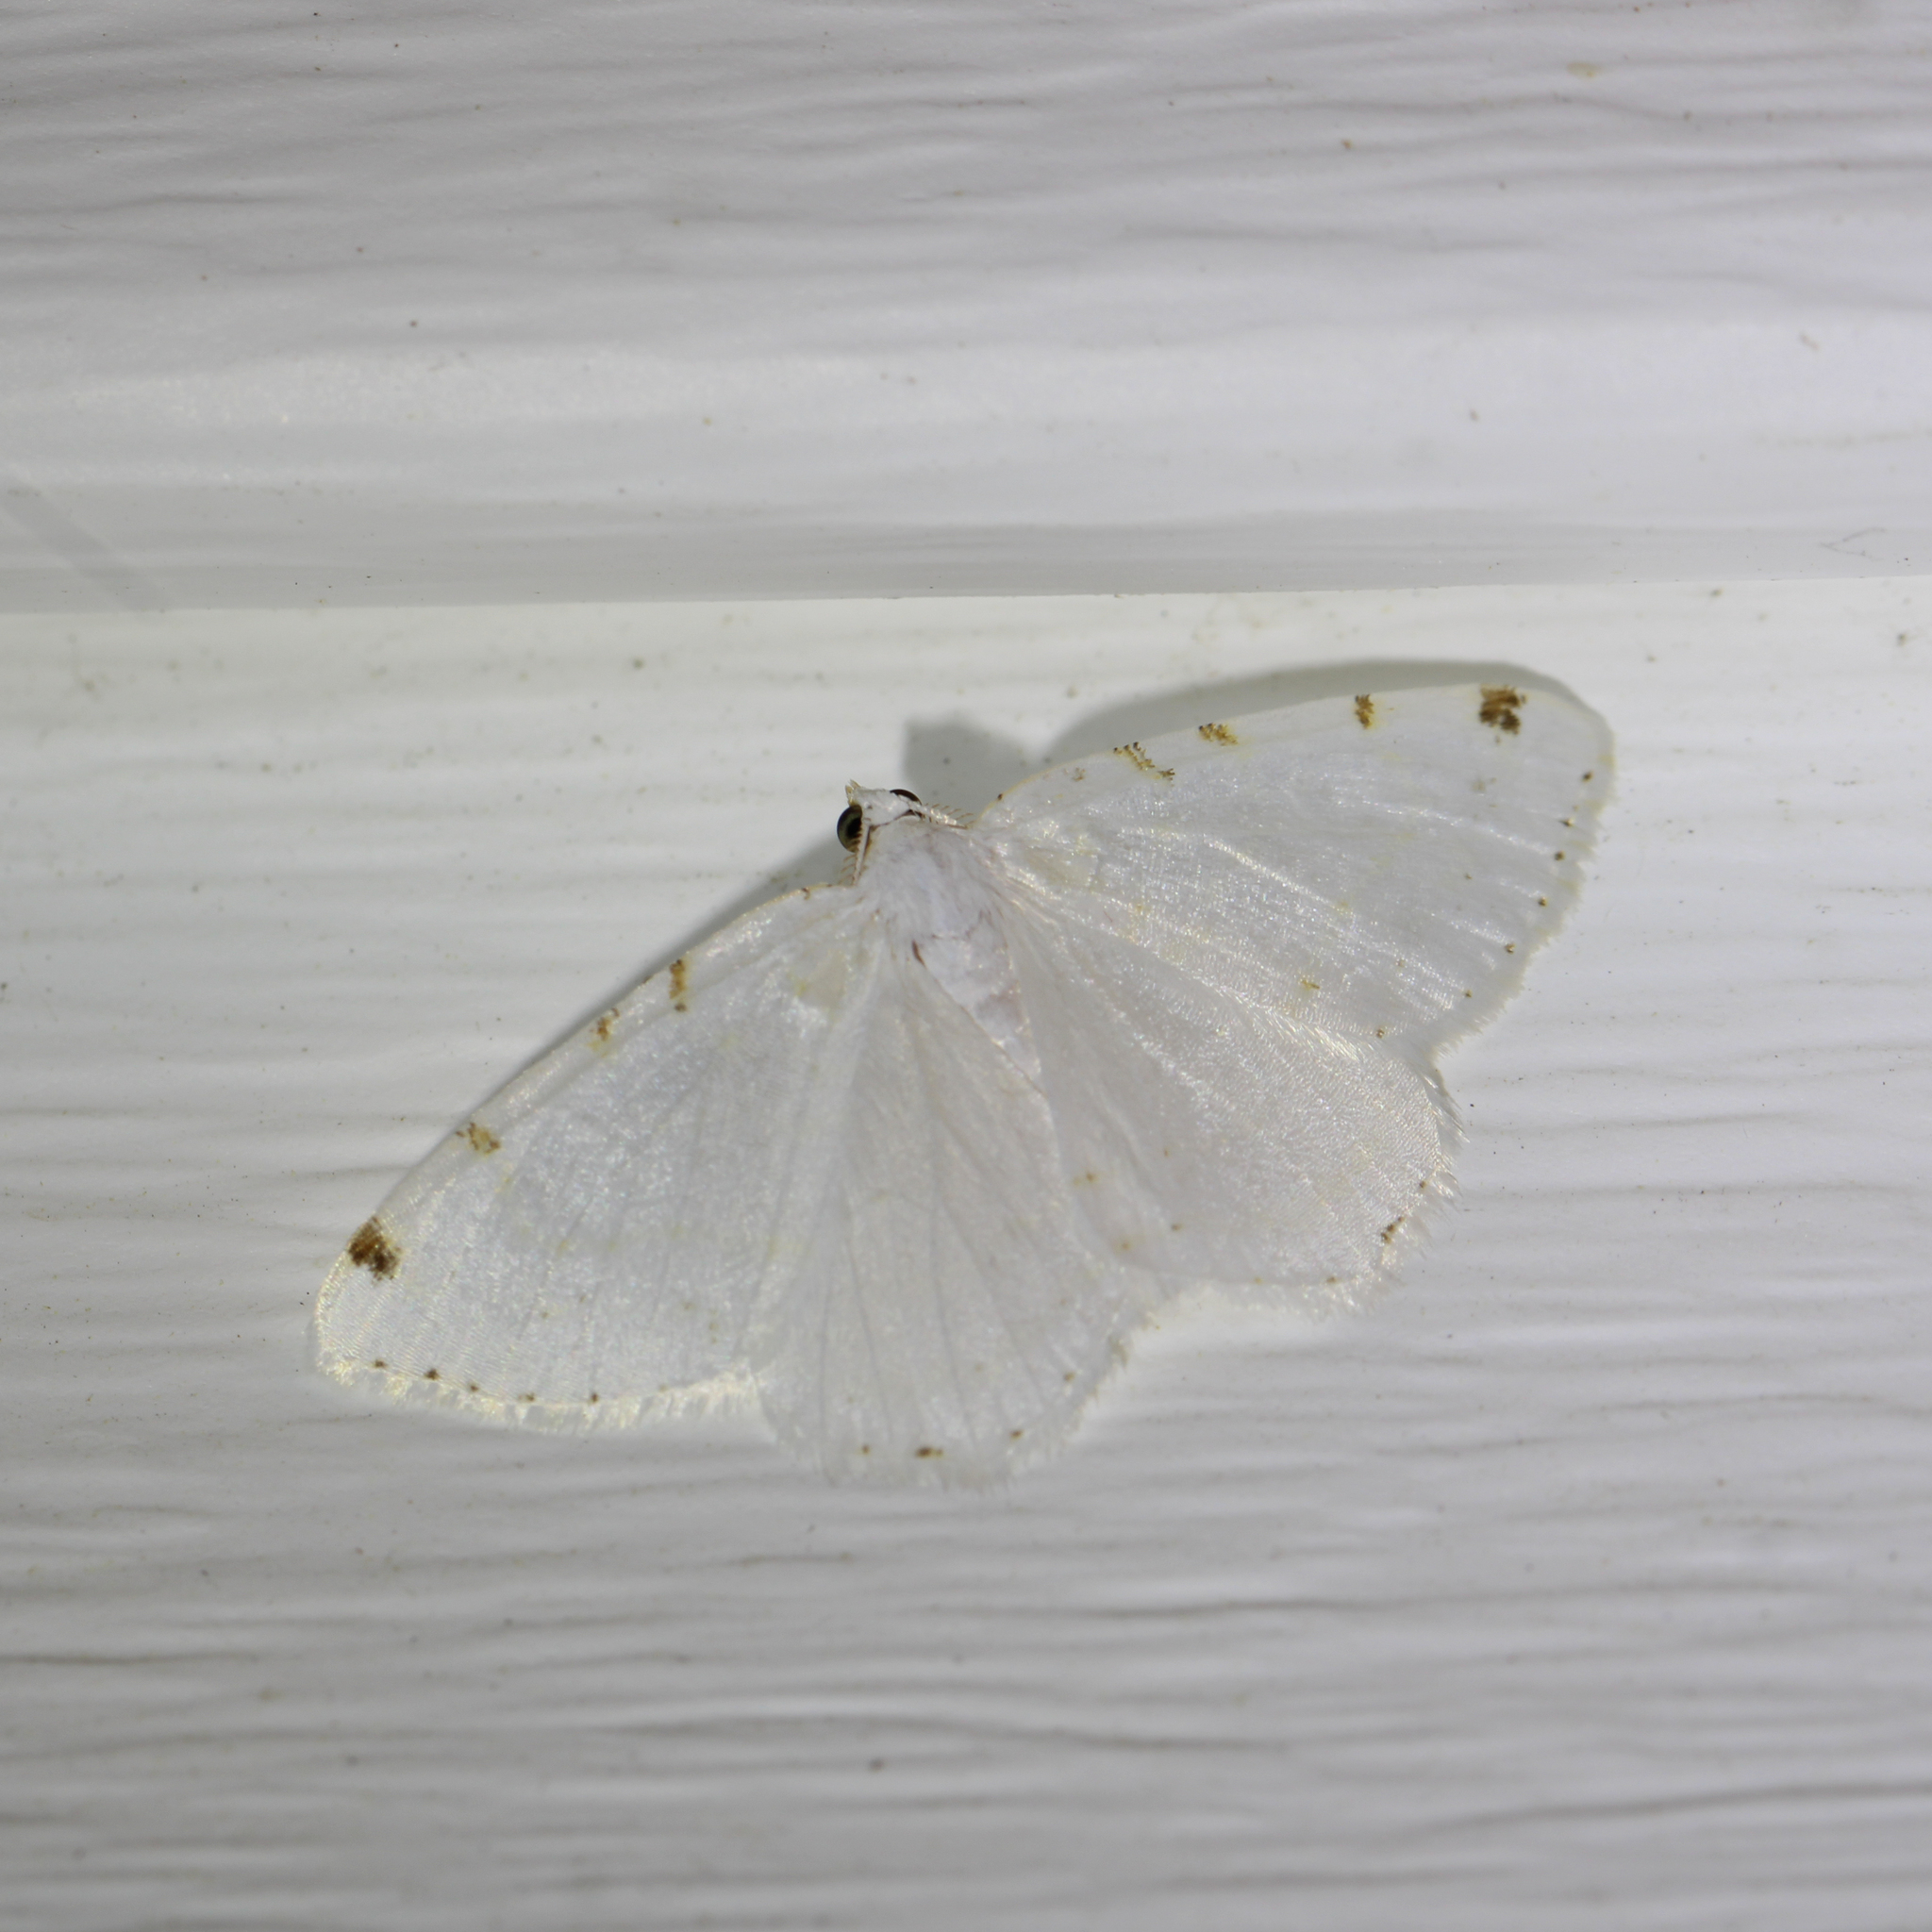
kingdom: Animalia
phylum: Arthropoda
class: Insecta
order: Lepidoptera
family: Geometridae
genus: Macaria
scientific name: Macaria pustularia
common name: Lesser maple spanworm moth
